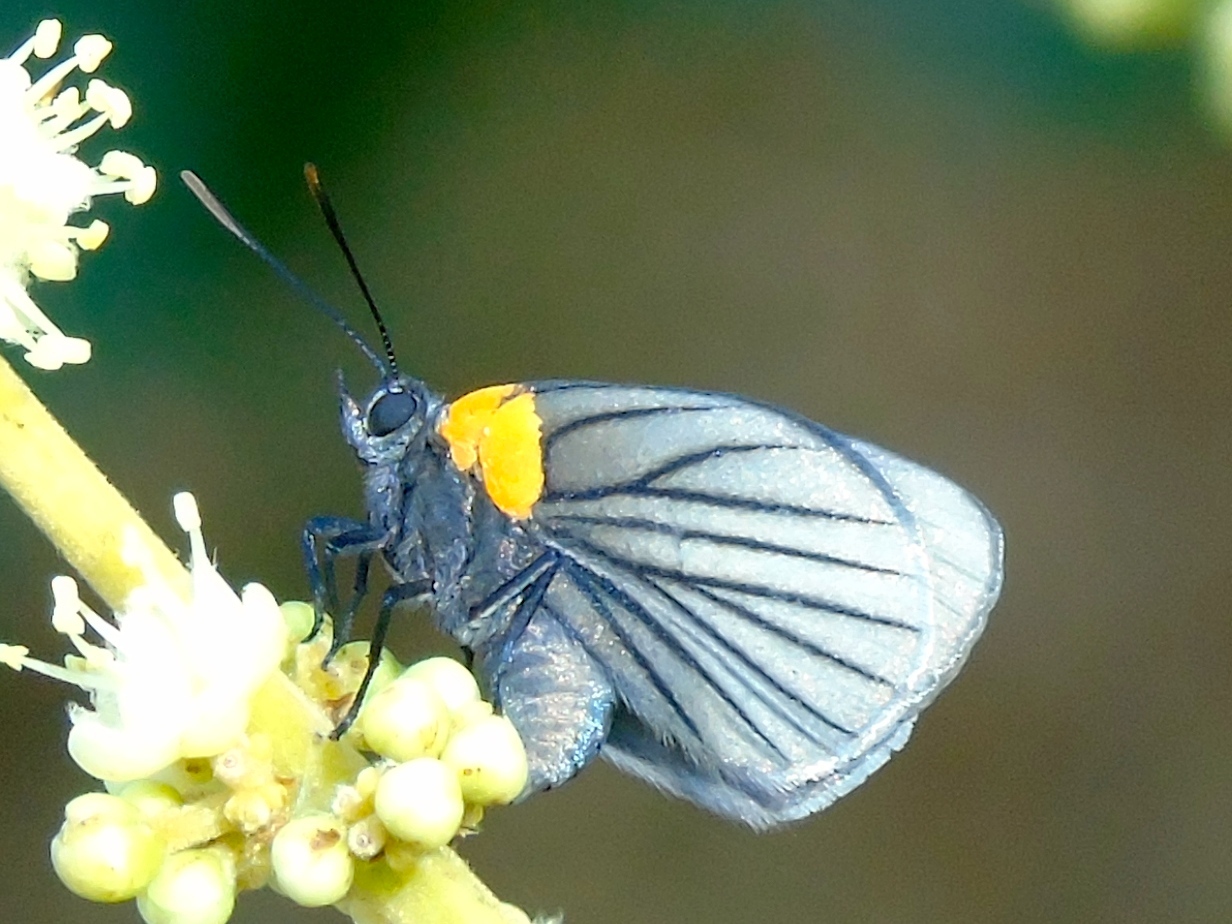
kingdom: Animalia
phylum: Arthropoda
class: Insecta
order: Lepidoptera
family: Lycaenidae
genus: Ipidecla
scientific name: Ipidecla miadora
